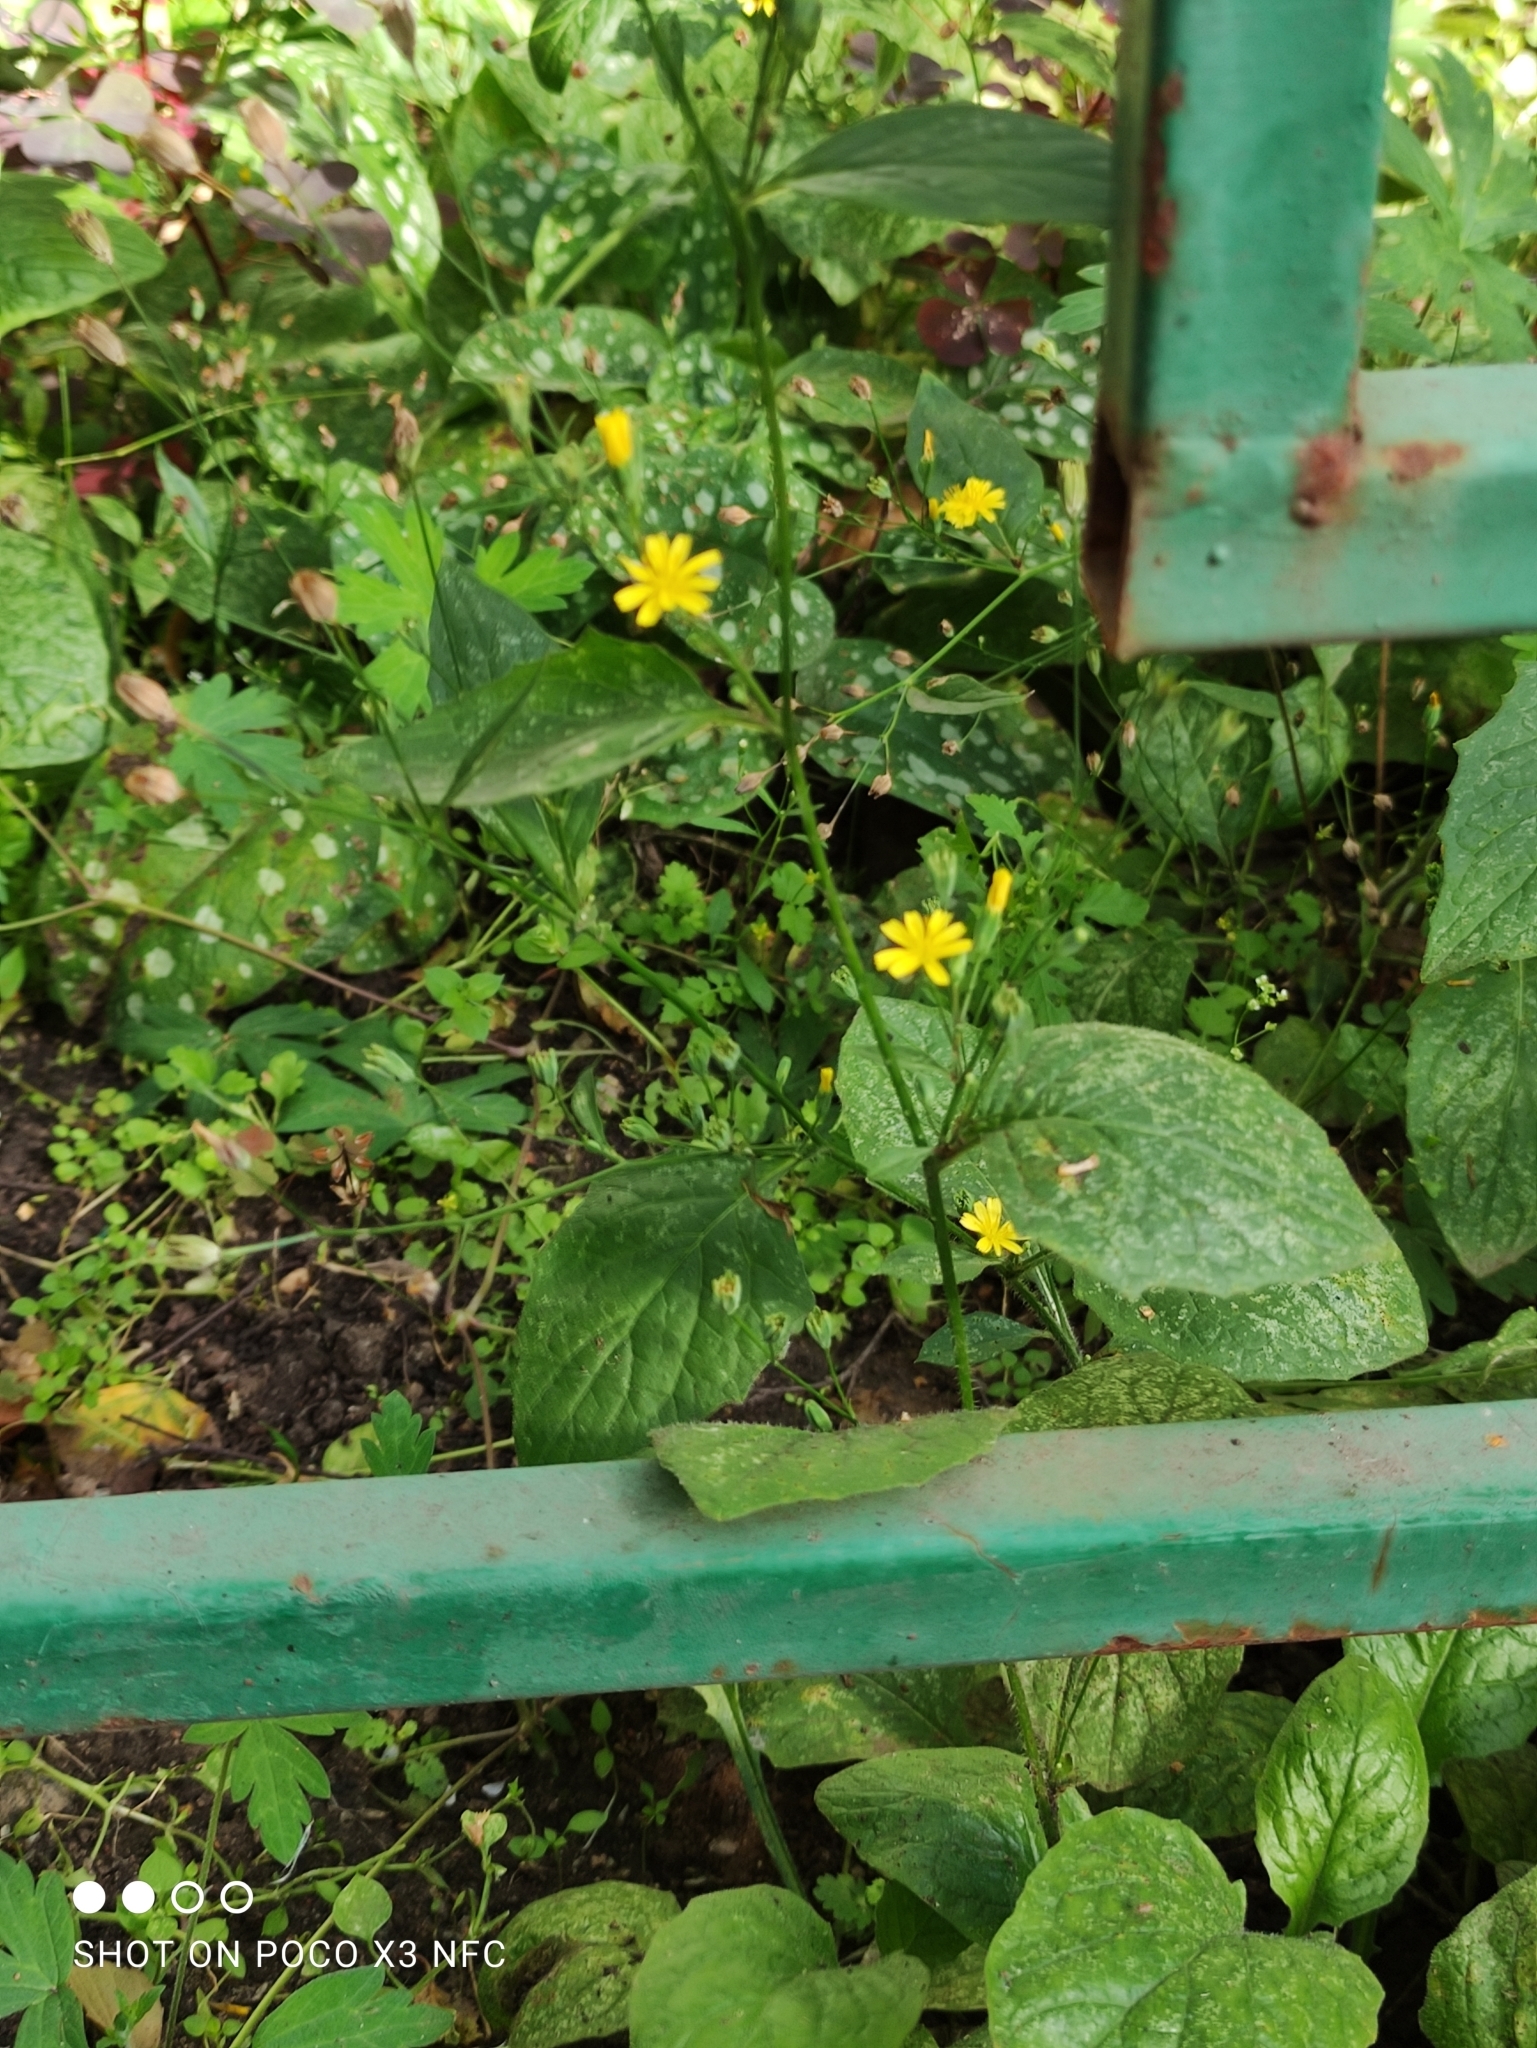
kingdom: Plantae
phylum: Tracheophyta
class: Magnoliopsida
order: Asterales
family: Asteraceae
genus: Lapsana
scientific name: Lapsana communis
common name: Nipplewort
